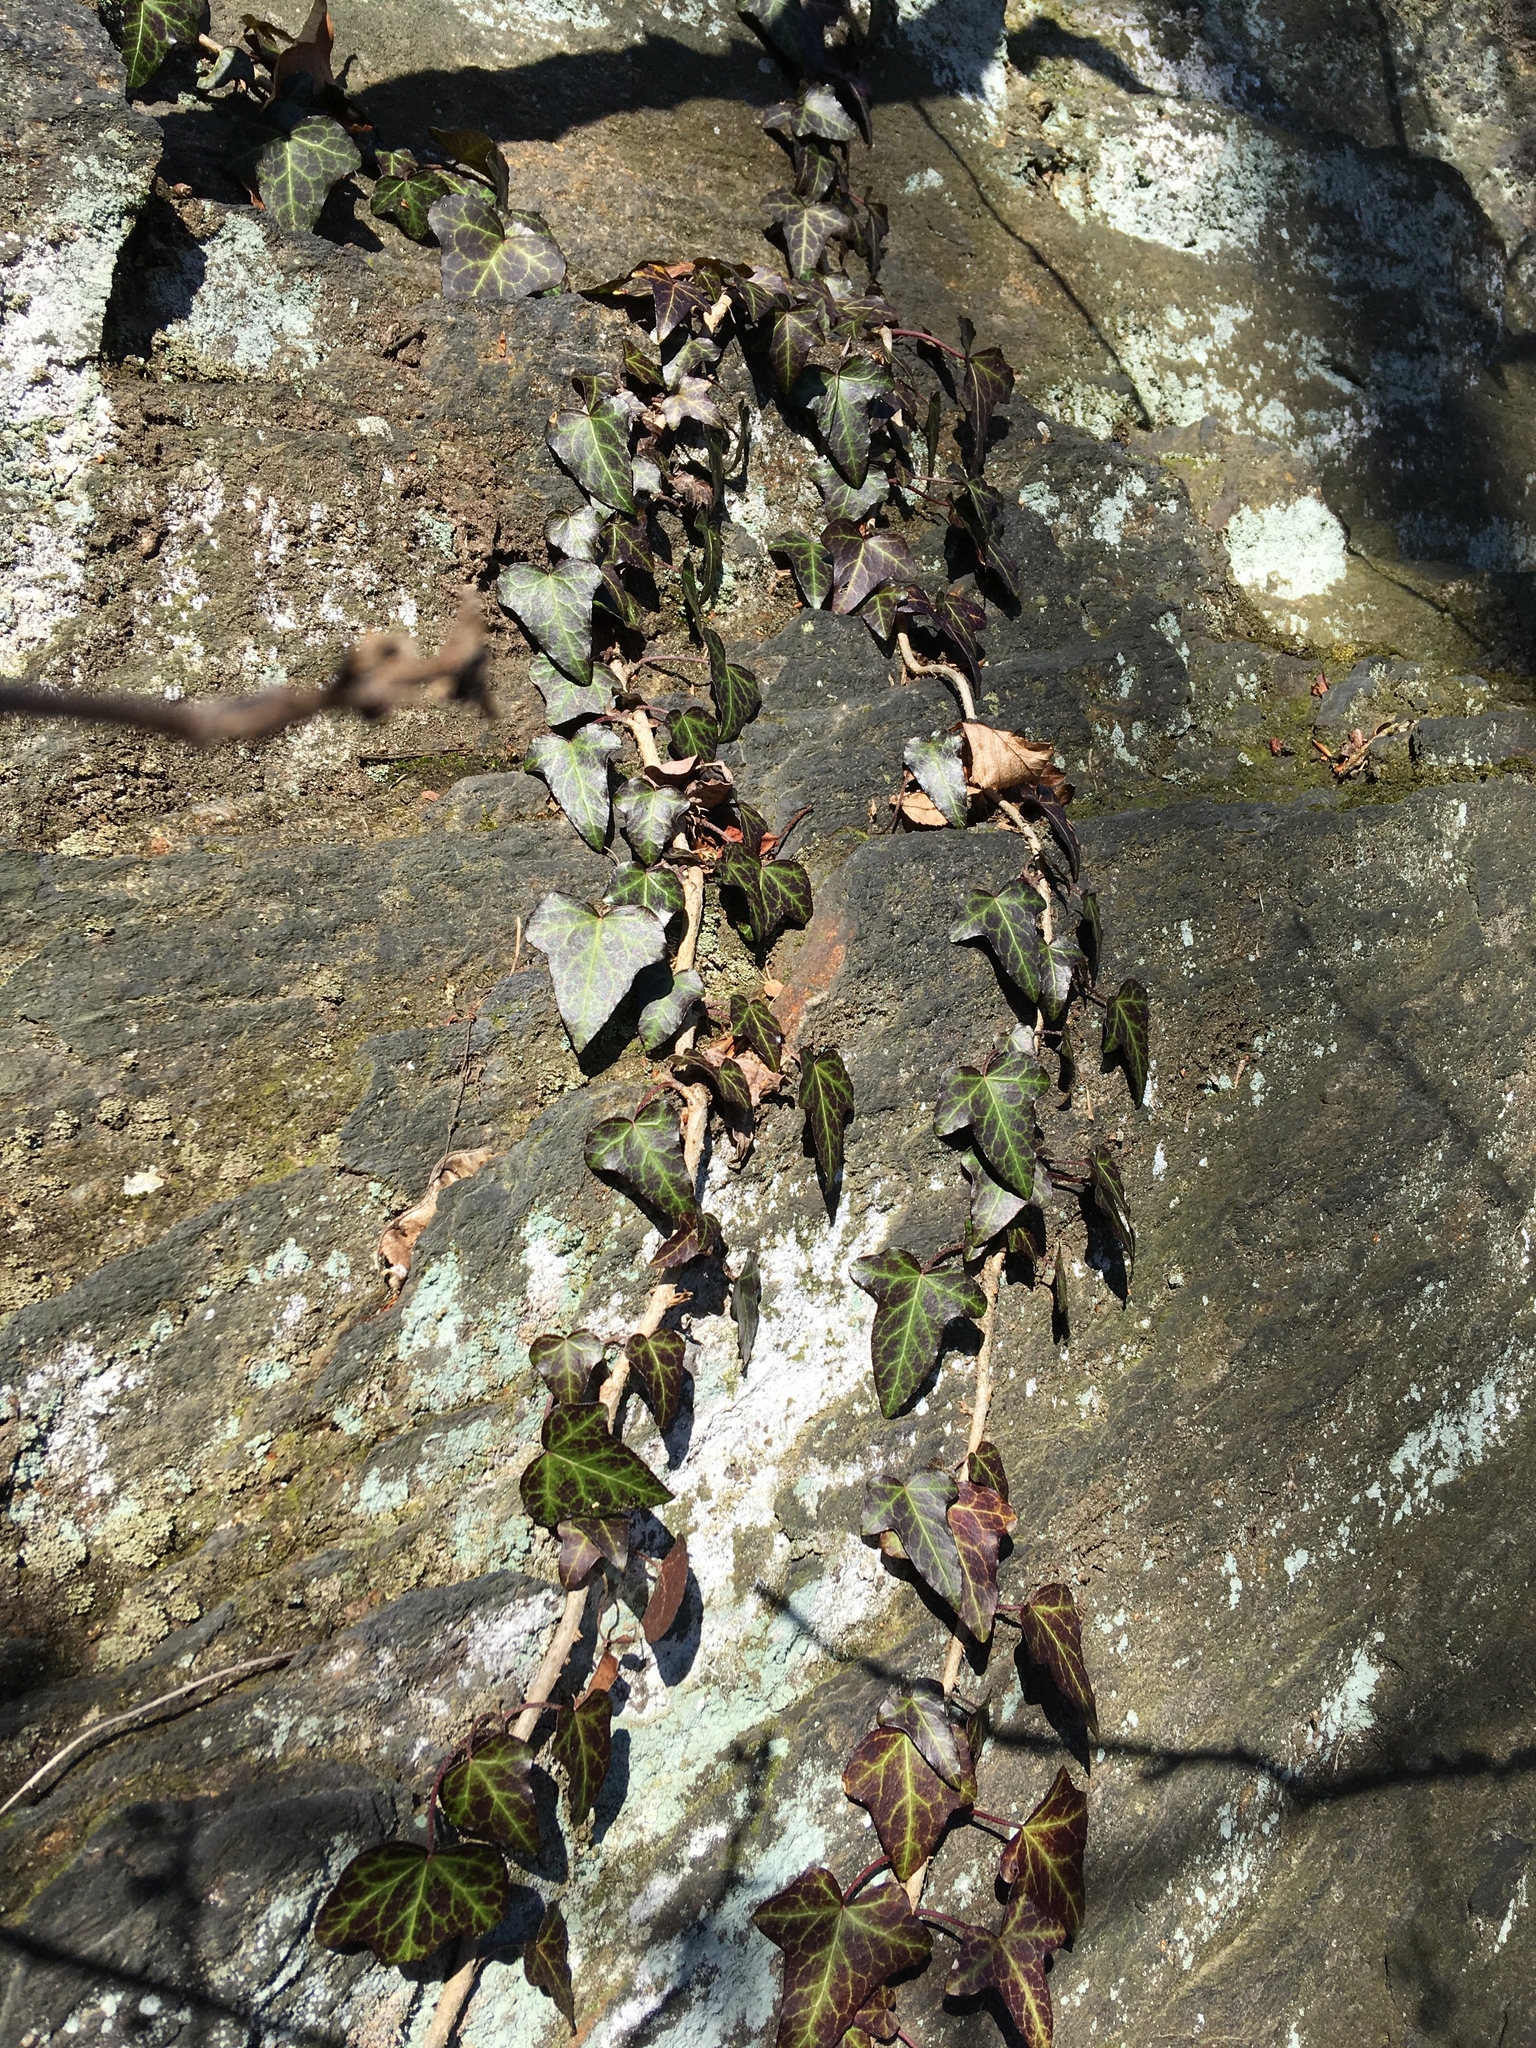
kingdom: Plantae
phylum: Tracheophyta
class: Magnoliopsida
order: Apiales
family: Araliaceae
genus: Hedera
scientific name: Hedera helix
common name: Ivy
